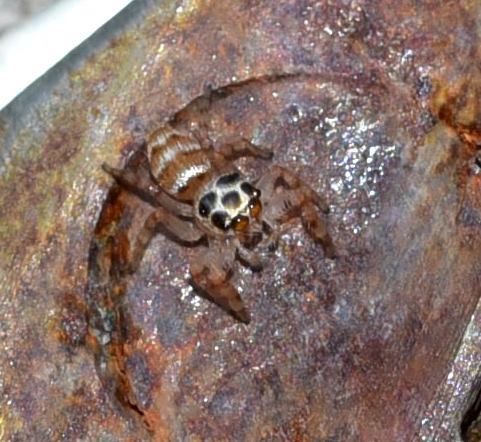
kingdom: Animalia
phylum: Arthropoda
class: Arachnida
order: Araneae
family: Salticidae
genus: Thyene
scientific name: Thyene natalii
